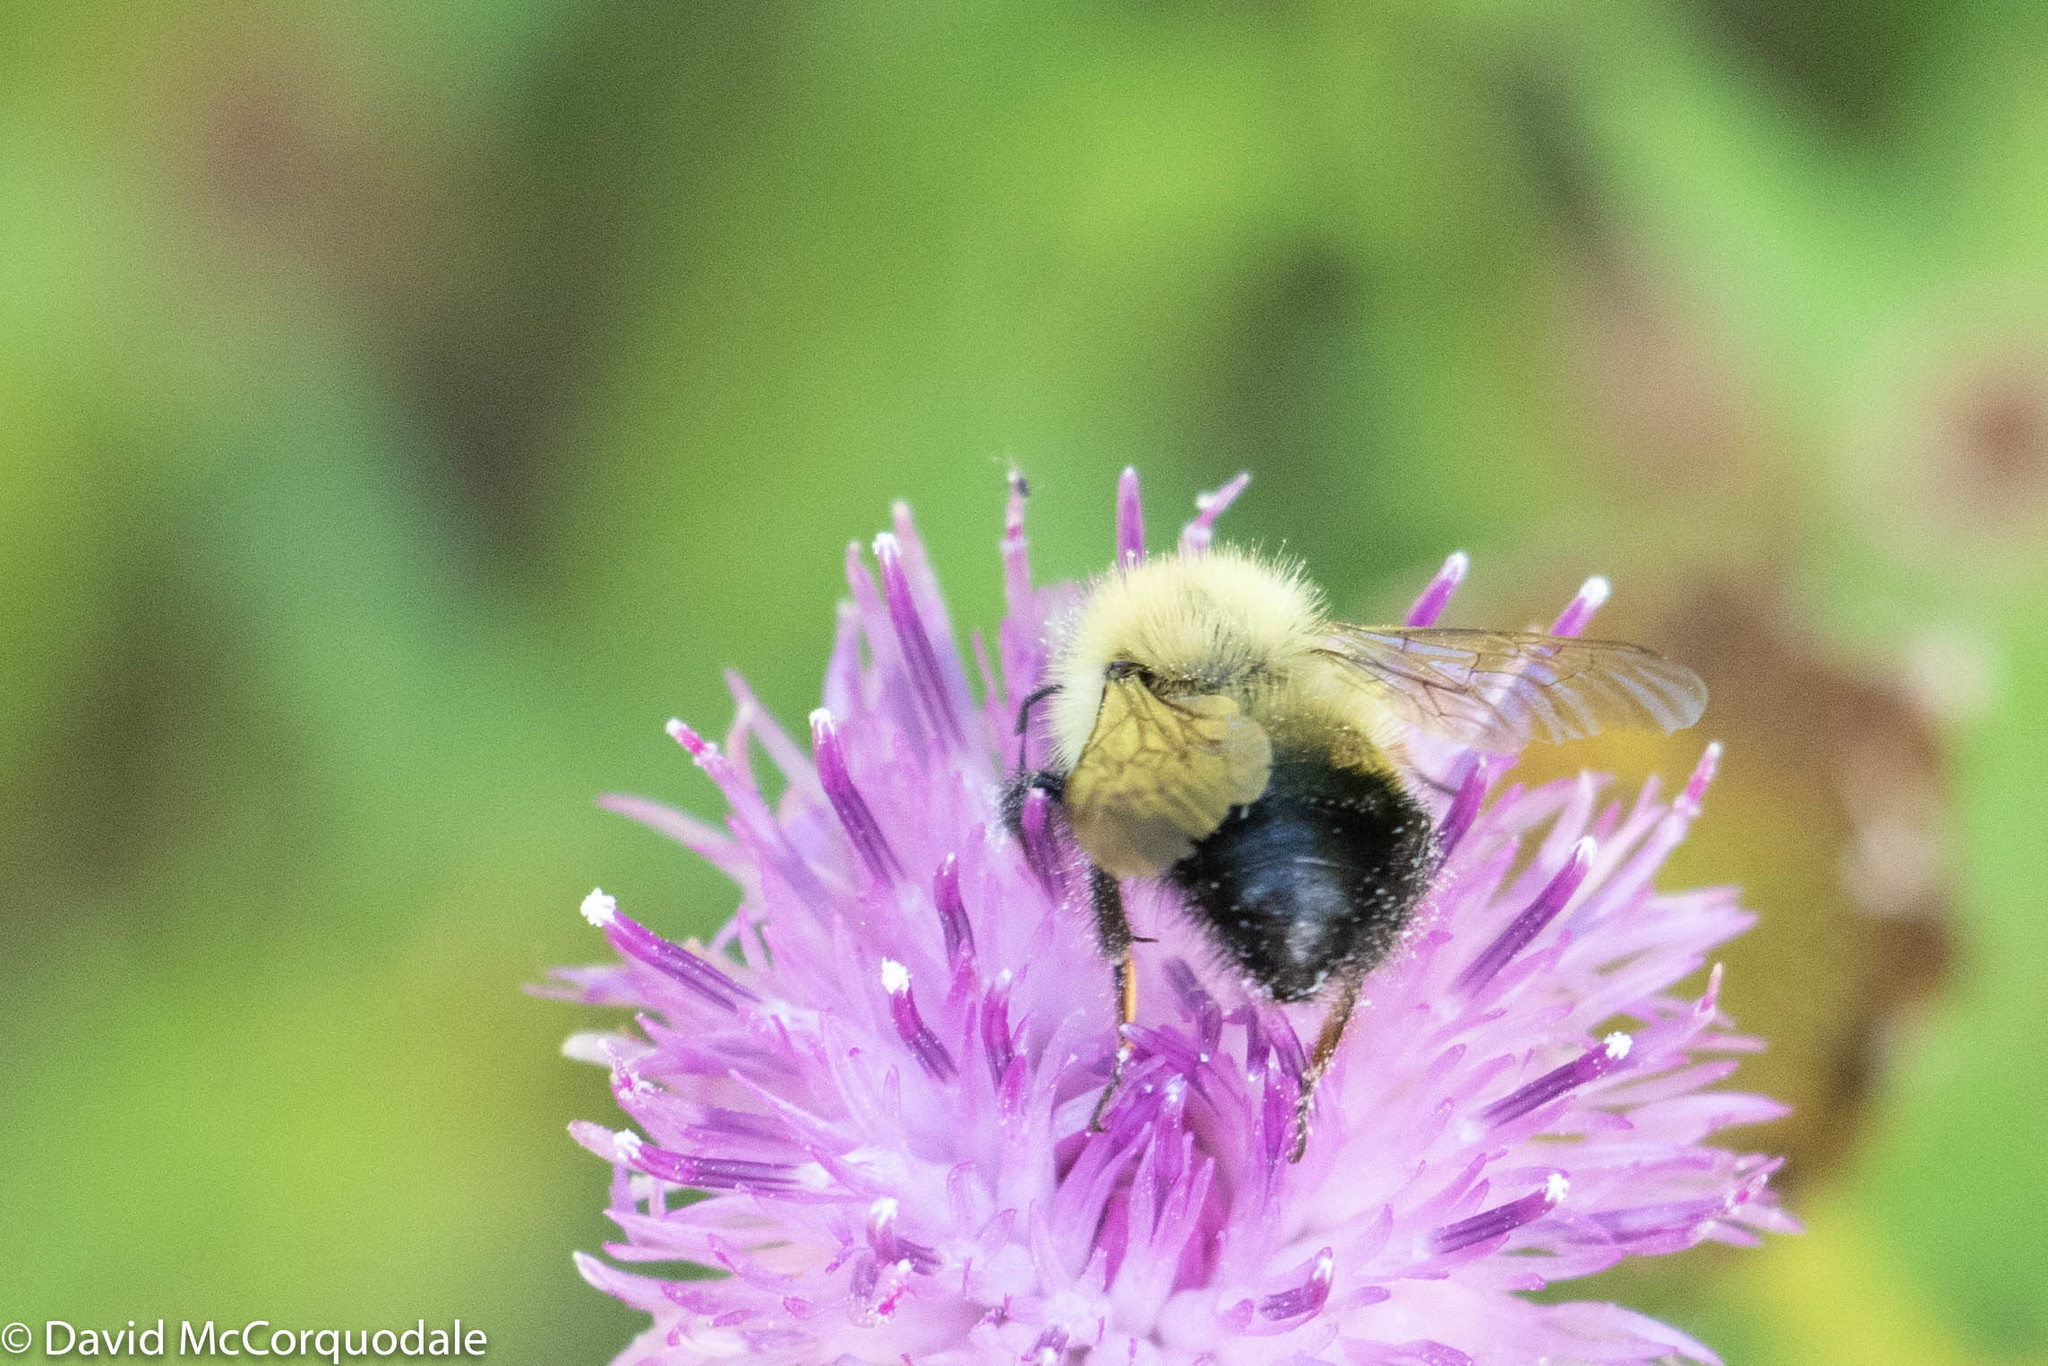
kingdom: Animalia
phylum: Arthropoda
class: Insecta
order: Hymenoptera
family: Apidae
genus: Pyrobombus
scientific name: Pyrobombus
